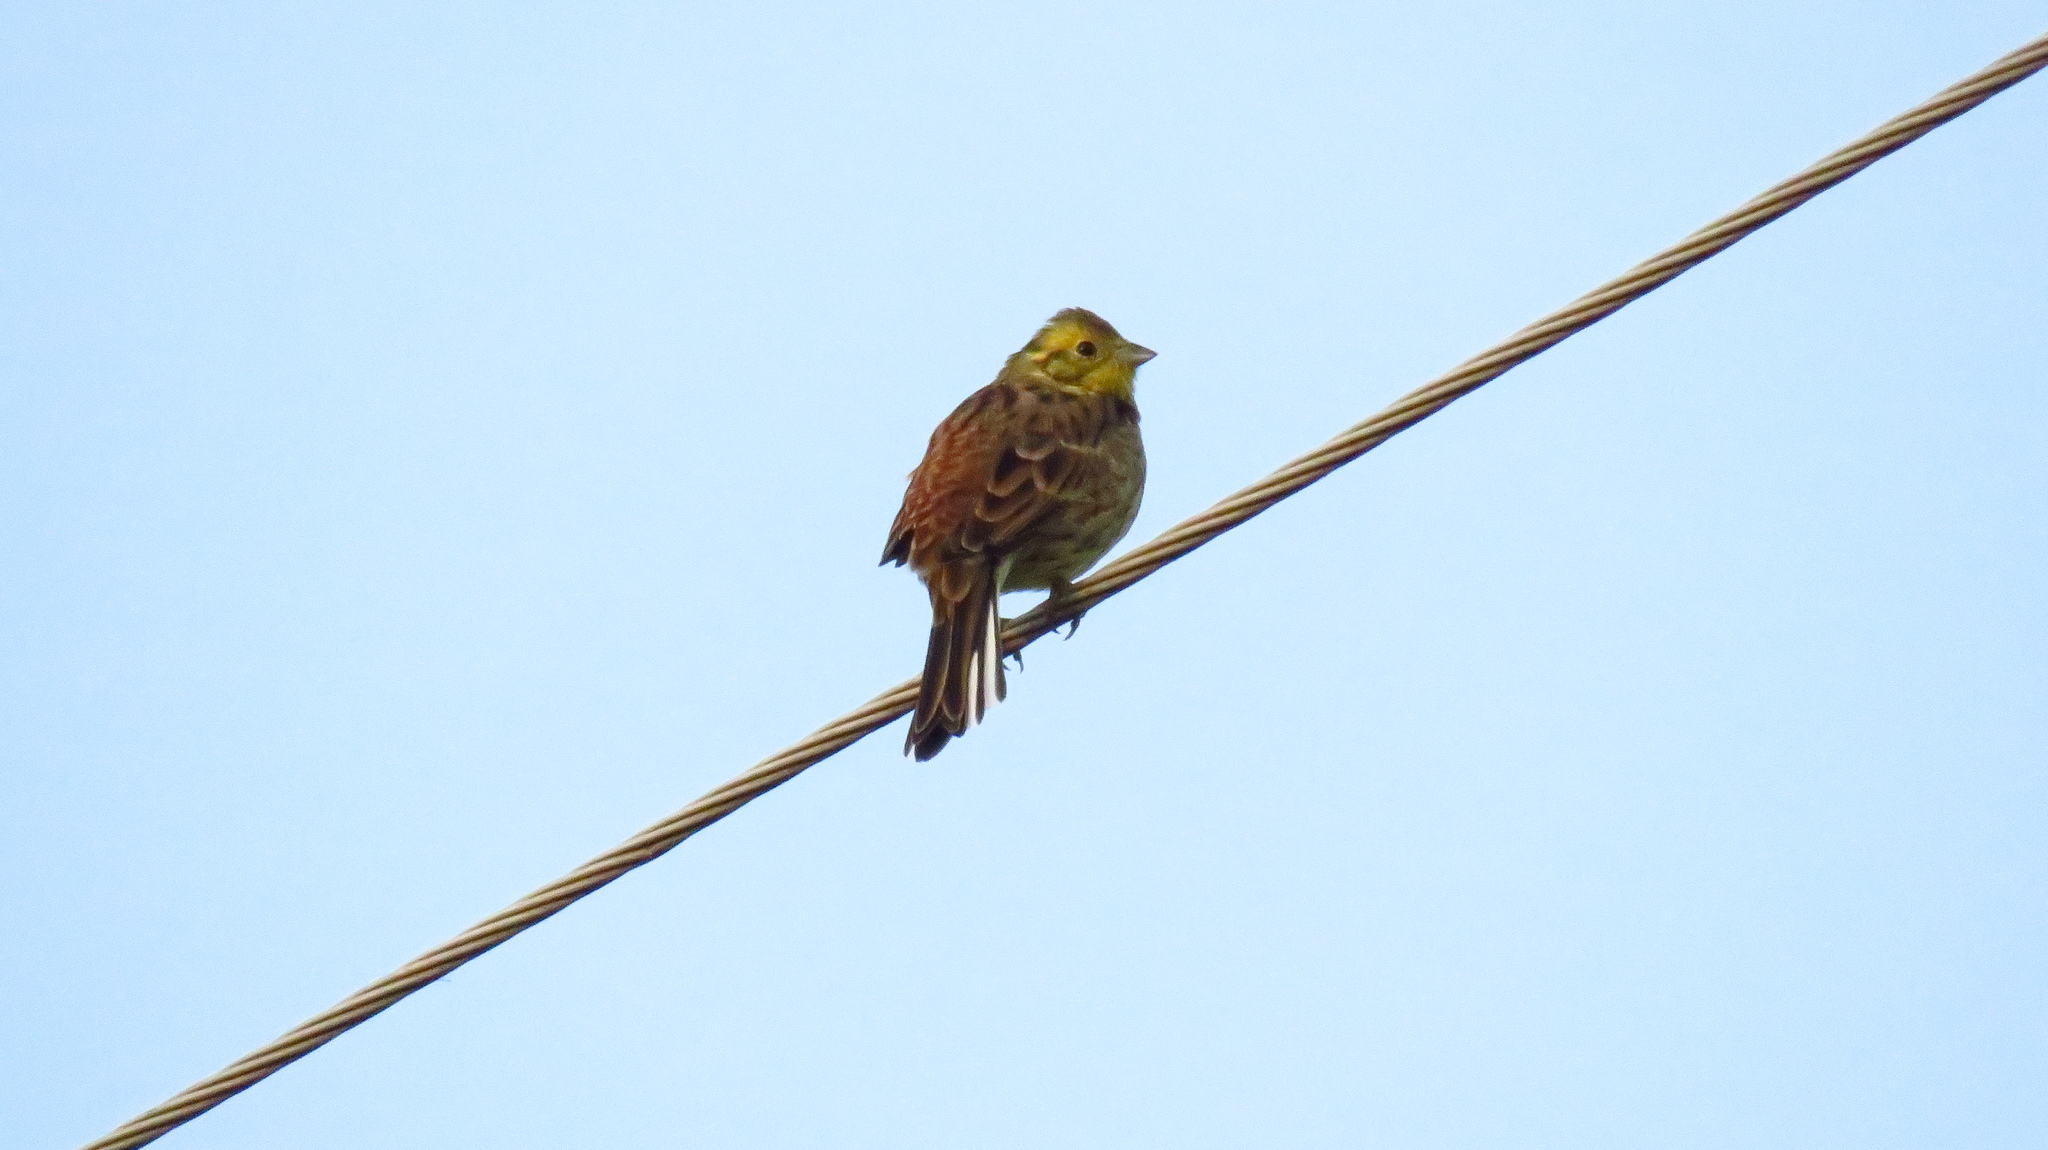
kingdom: Animalia
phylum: Chordata
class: Aves
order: Passeriformes
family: Emberizidae
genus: Emberiza
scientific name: Emberiza citrinella
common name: Yellowhammer
